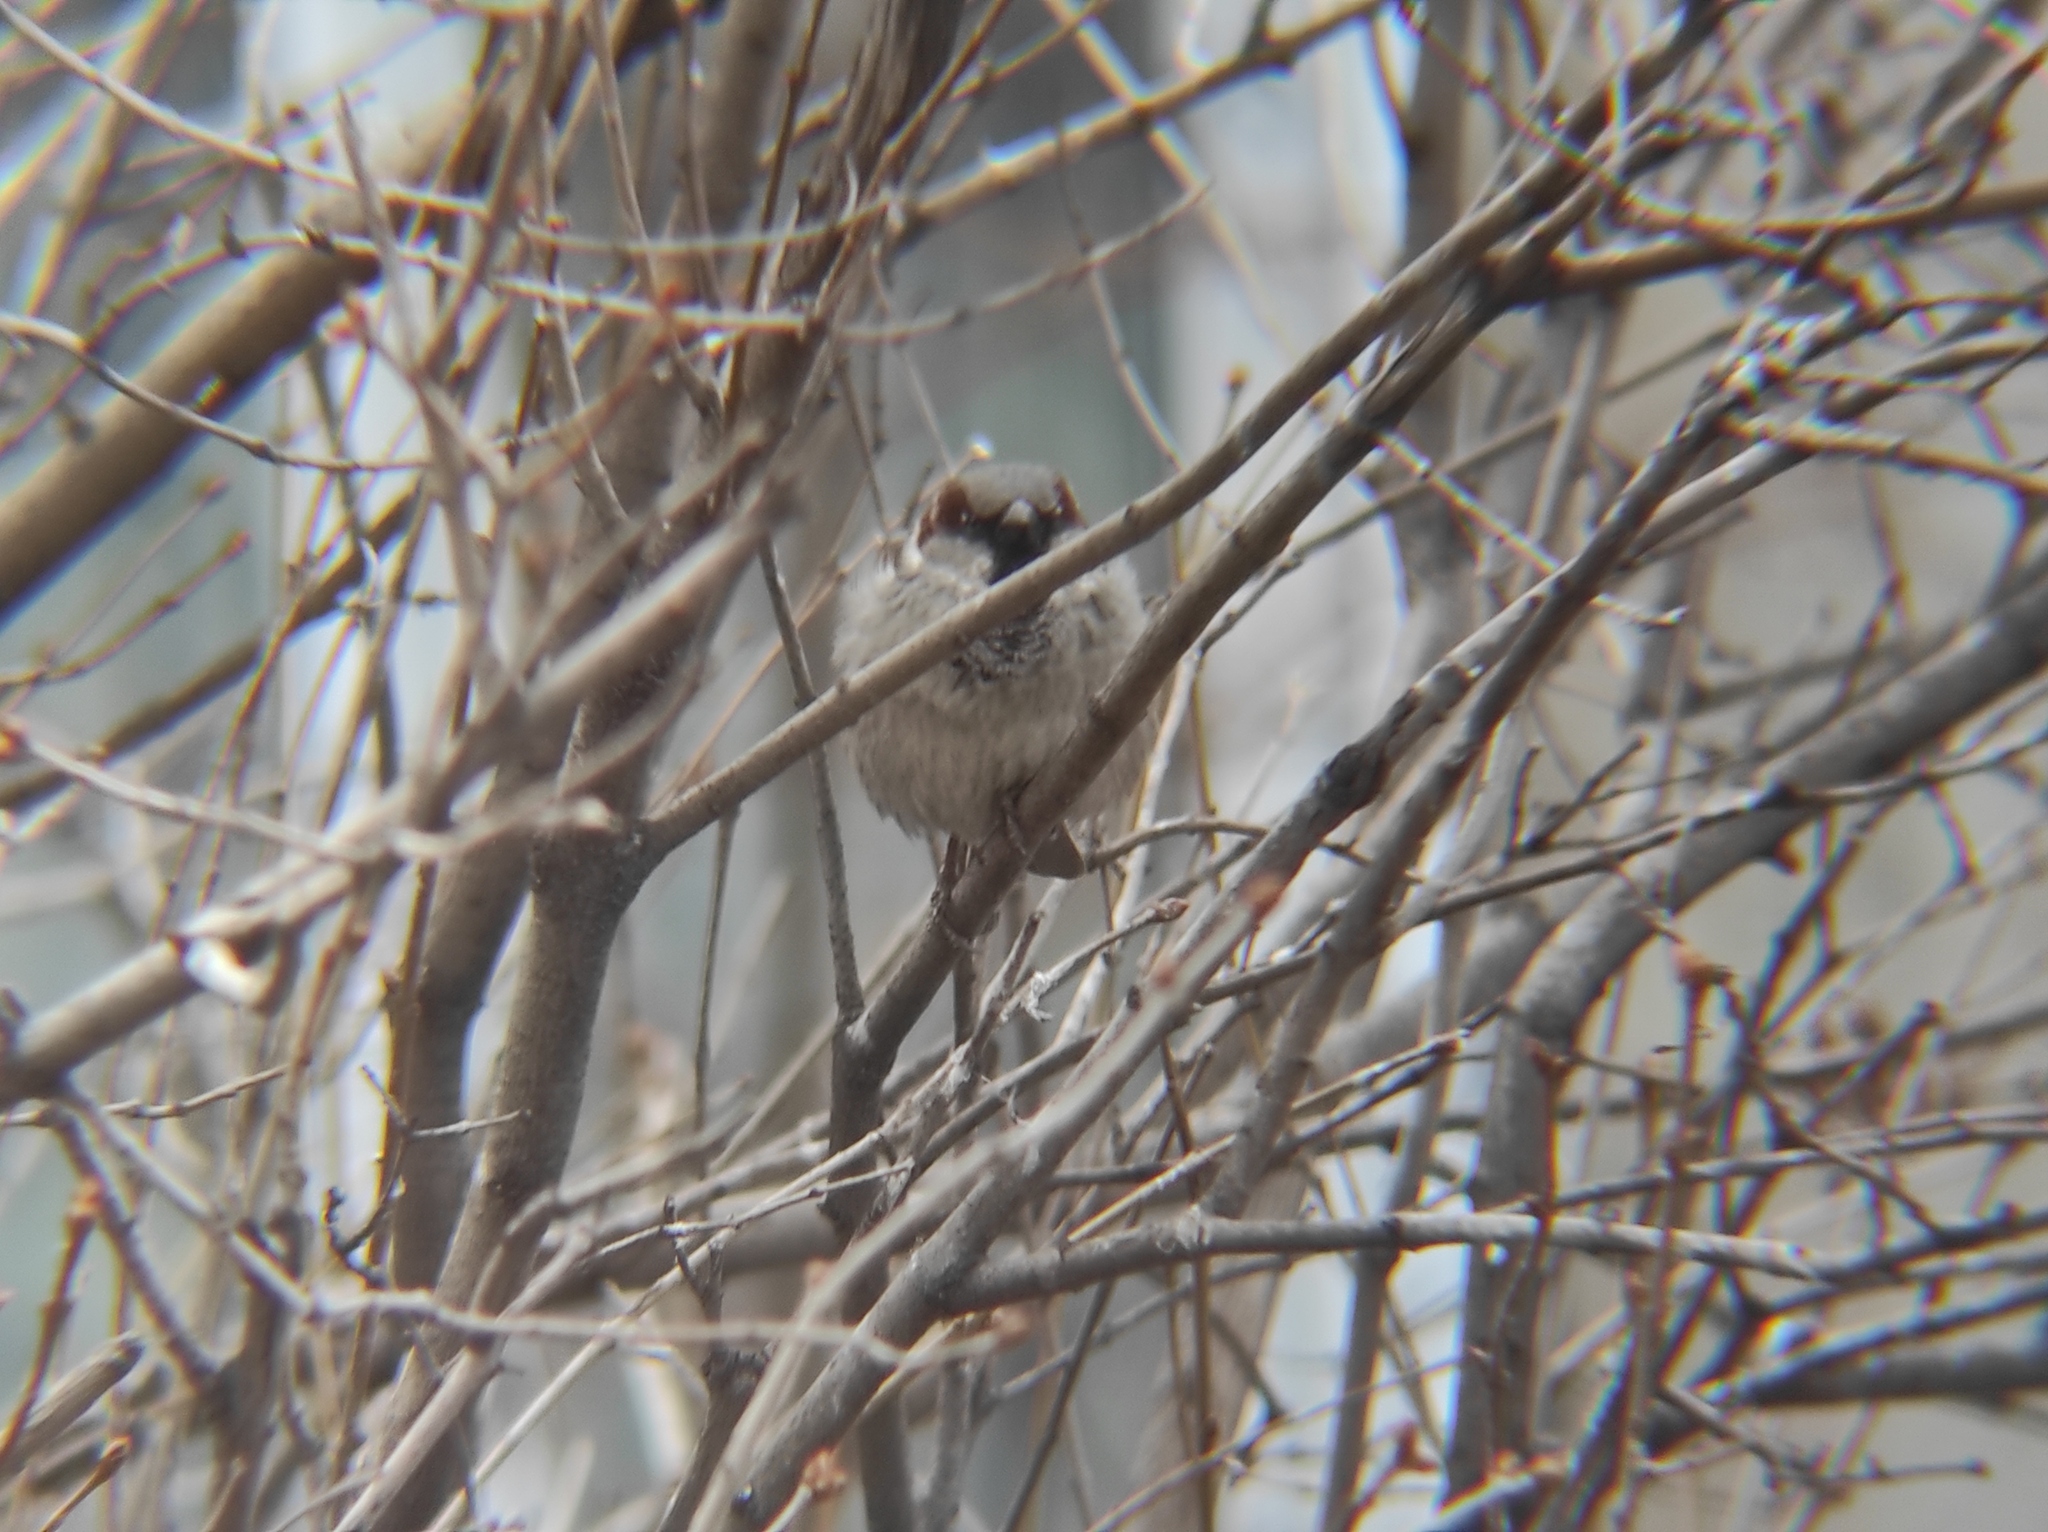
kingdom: Animalia
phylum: Chordata
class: Aves
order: Passeriformes
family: Passeridae
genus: Passer
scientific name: Passer domesticus
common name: House sparrow
